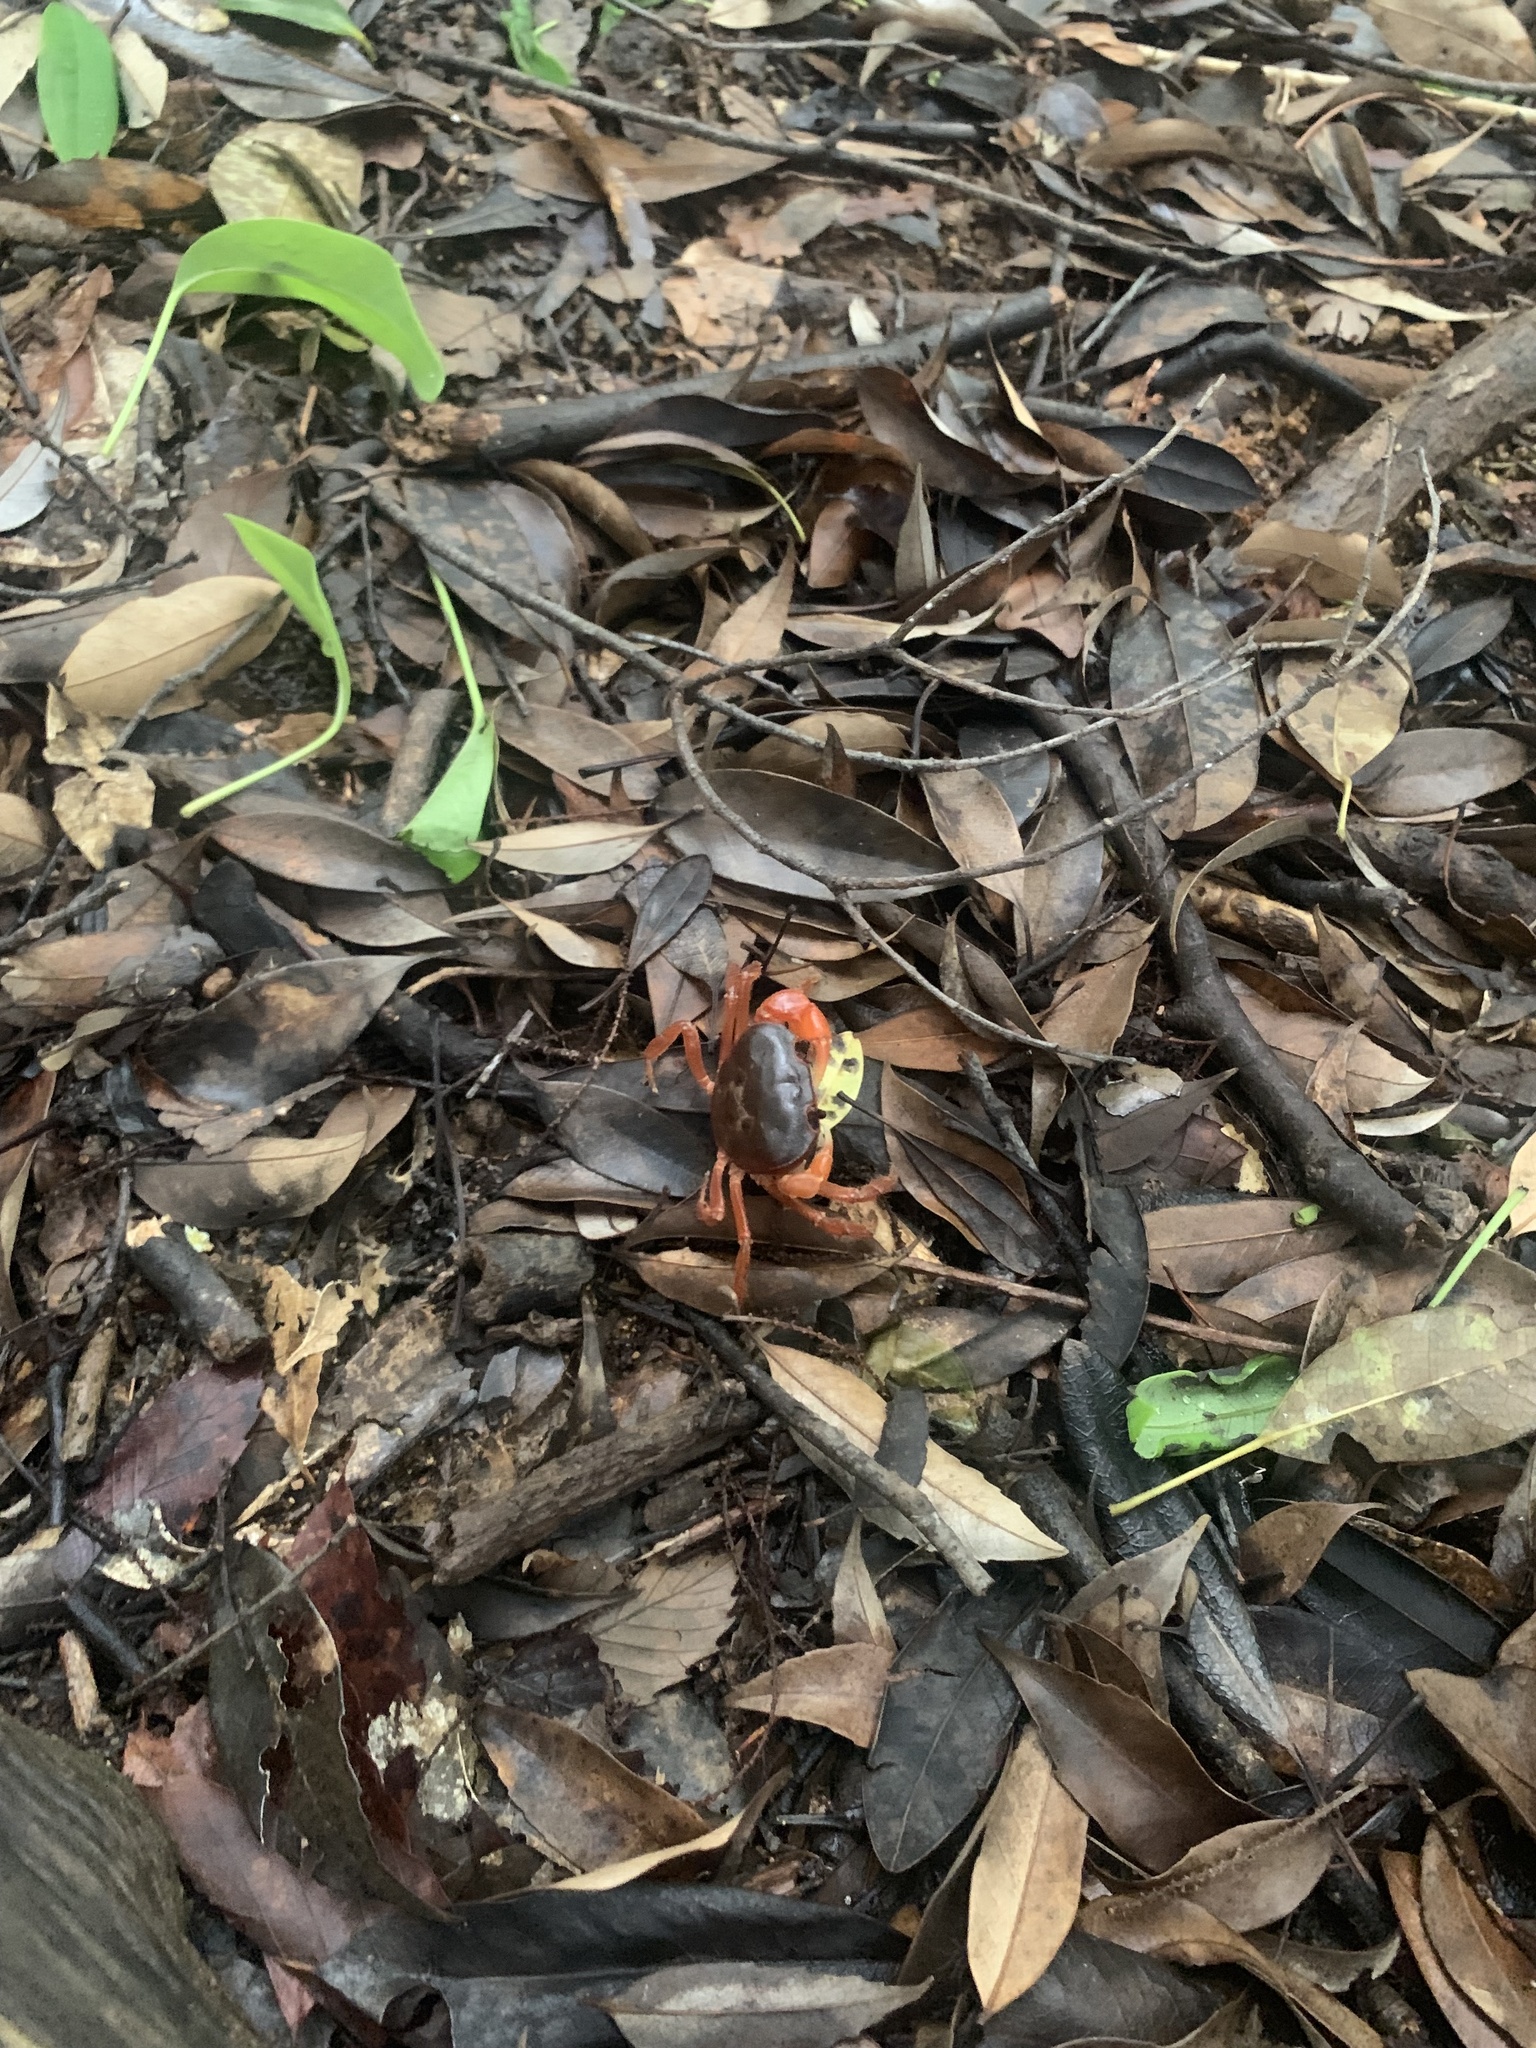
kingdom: Animalia
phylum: Arthropoda
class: Malacostraca
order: Decapoda
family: Potamidae
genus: Geothelphusa
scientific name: Geothelphusa dehaani
